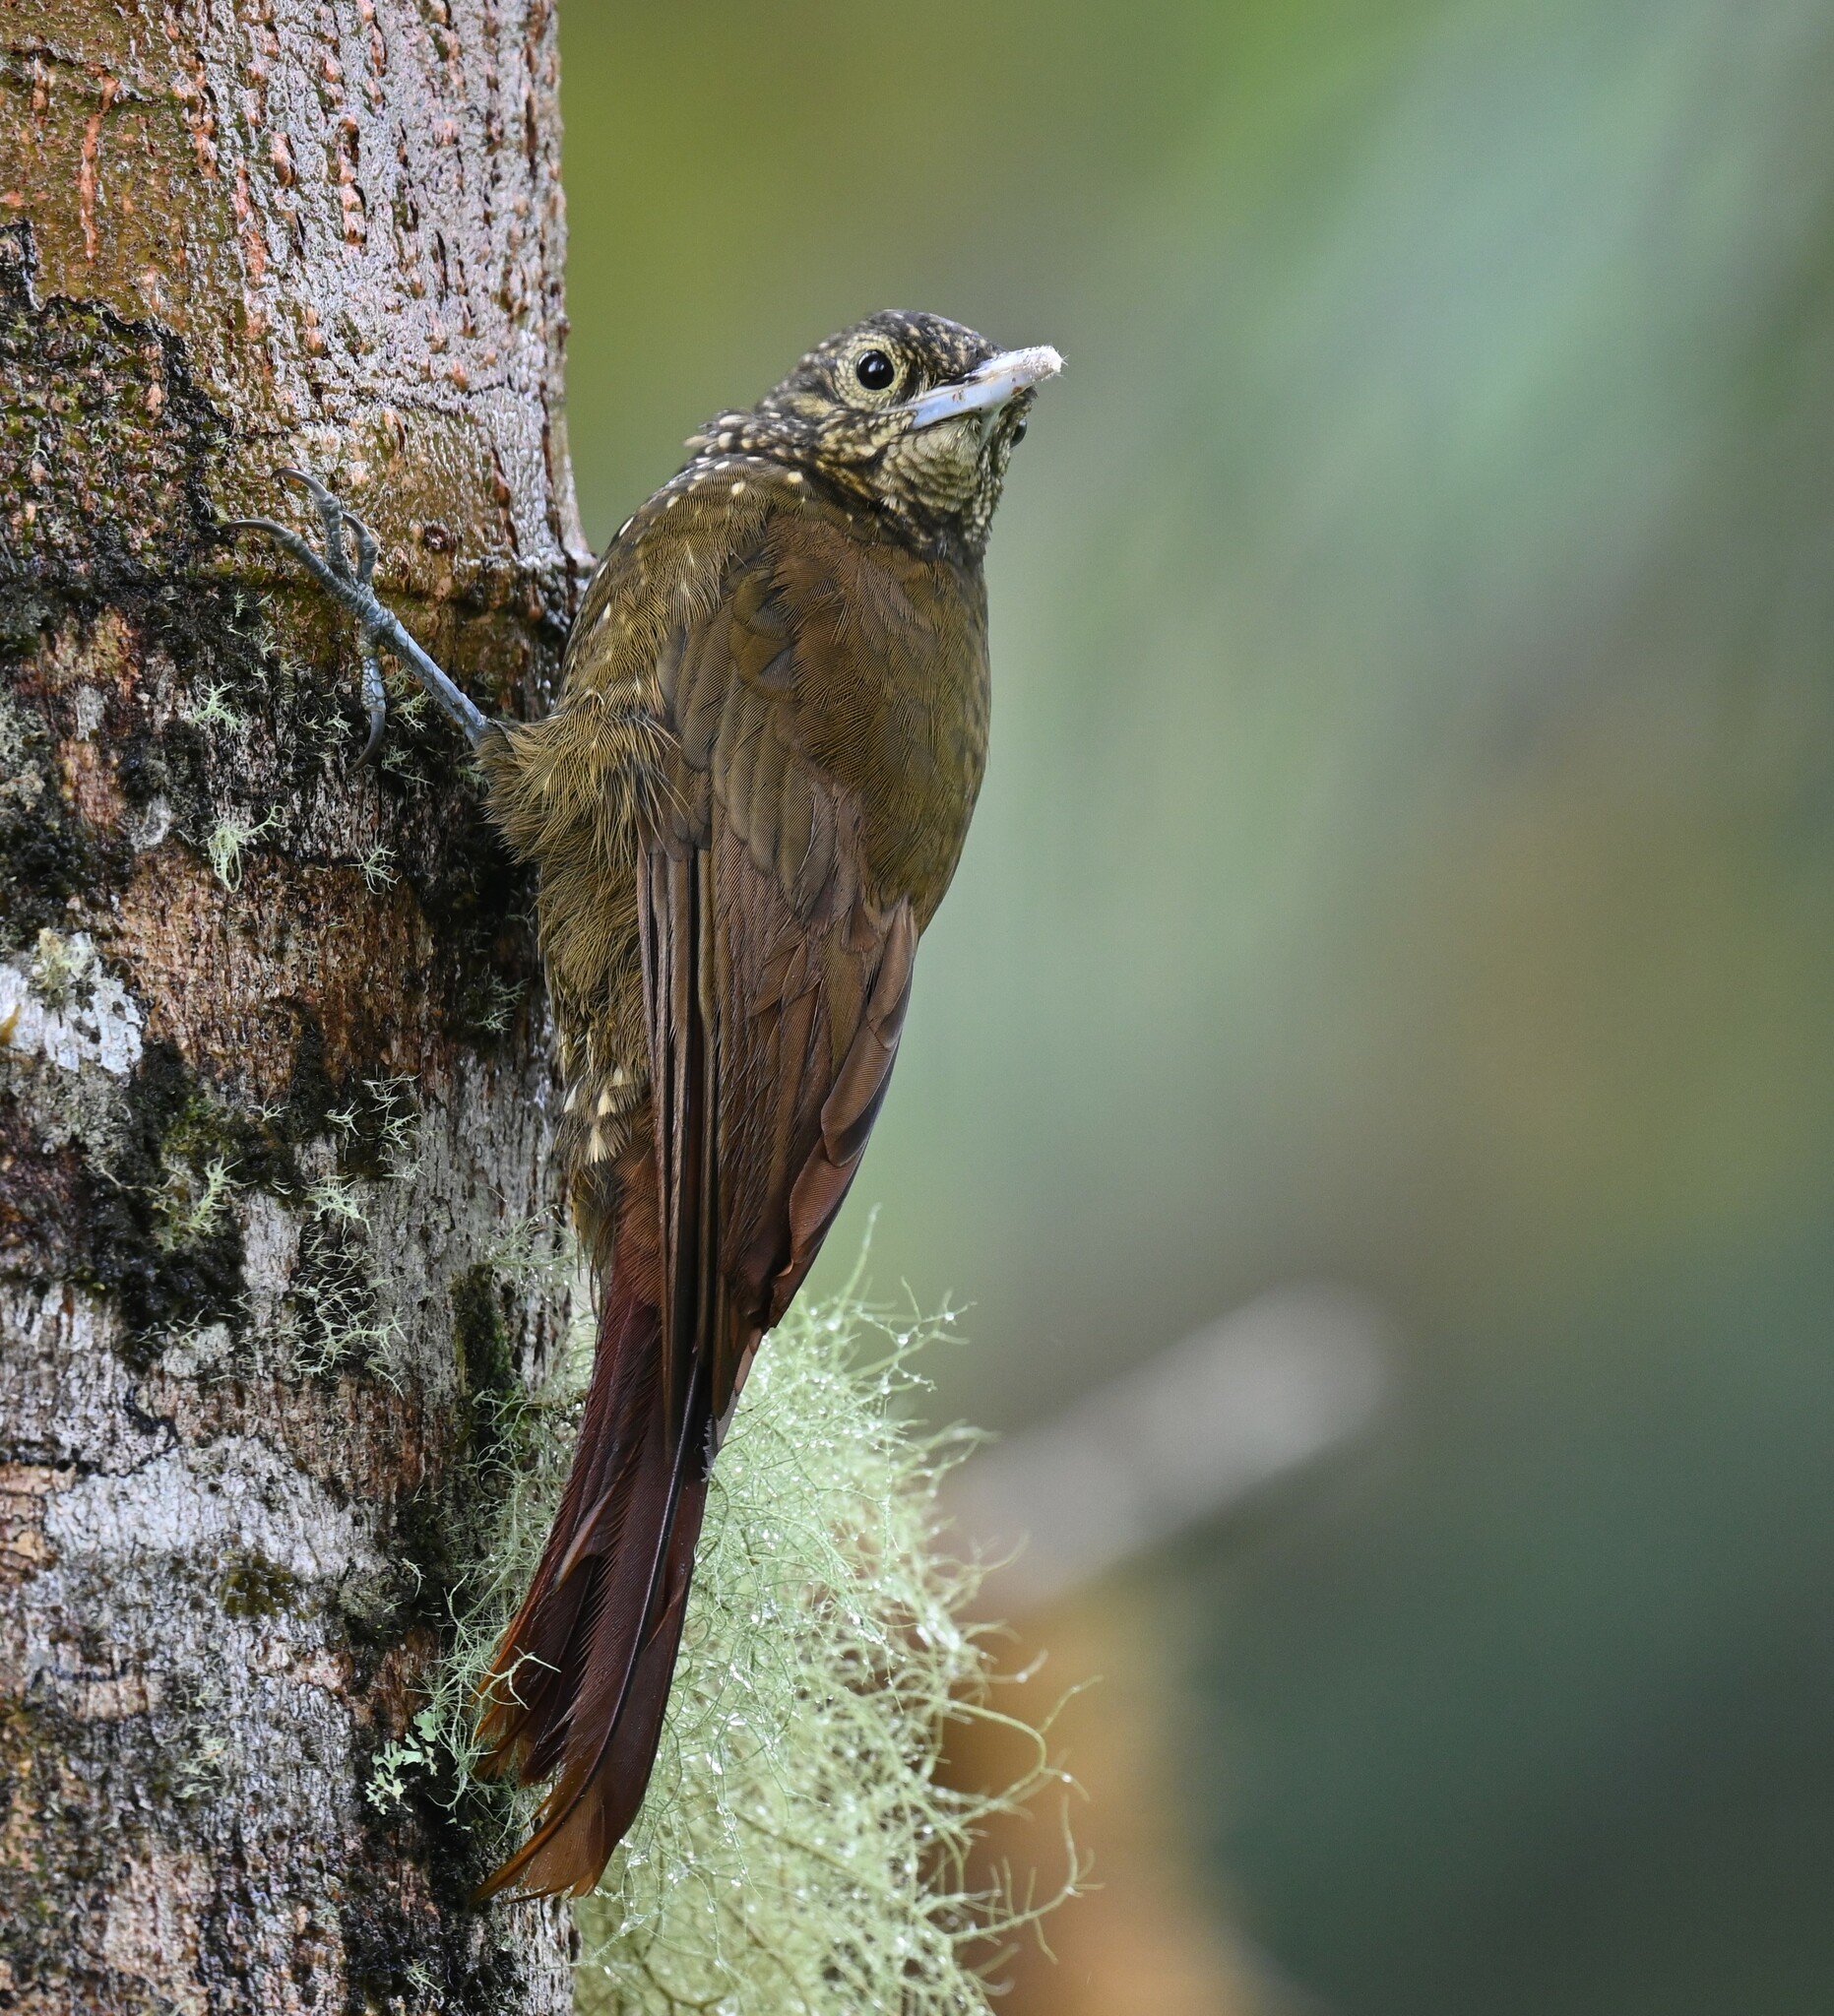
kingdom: Animalia
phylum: Chordata
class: Aves
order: Passeriformes
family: Furnariidae
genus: Xiphorhynchus
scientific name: Xiphorhynchus triangularis
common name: Olive-backed woodcreeper
